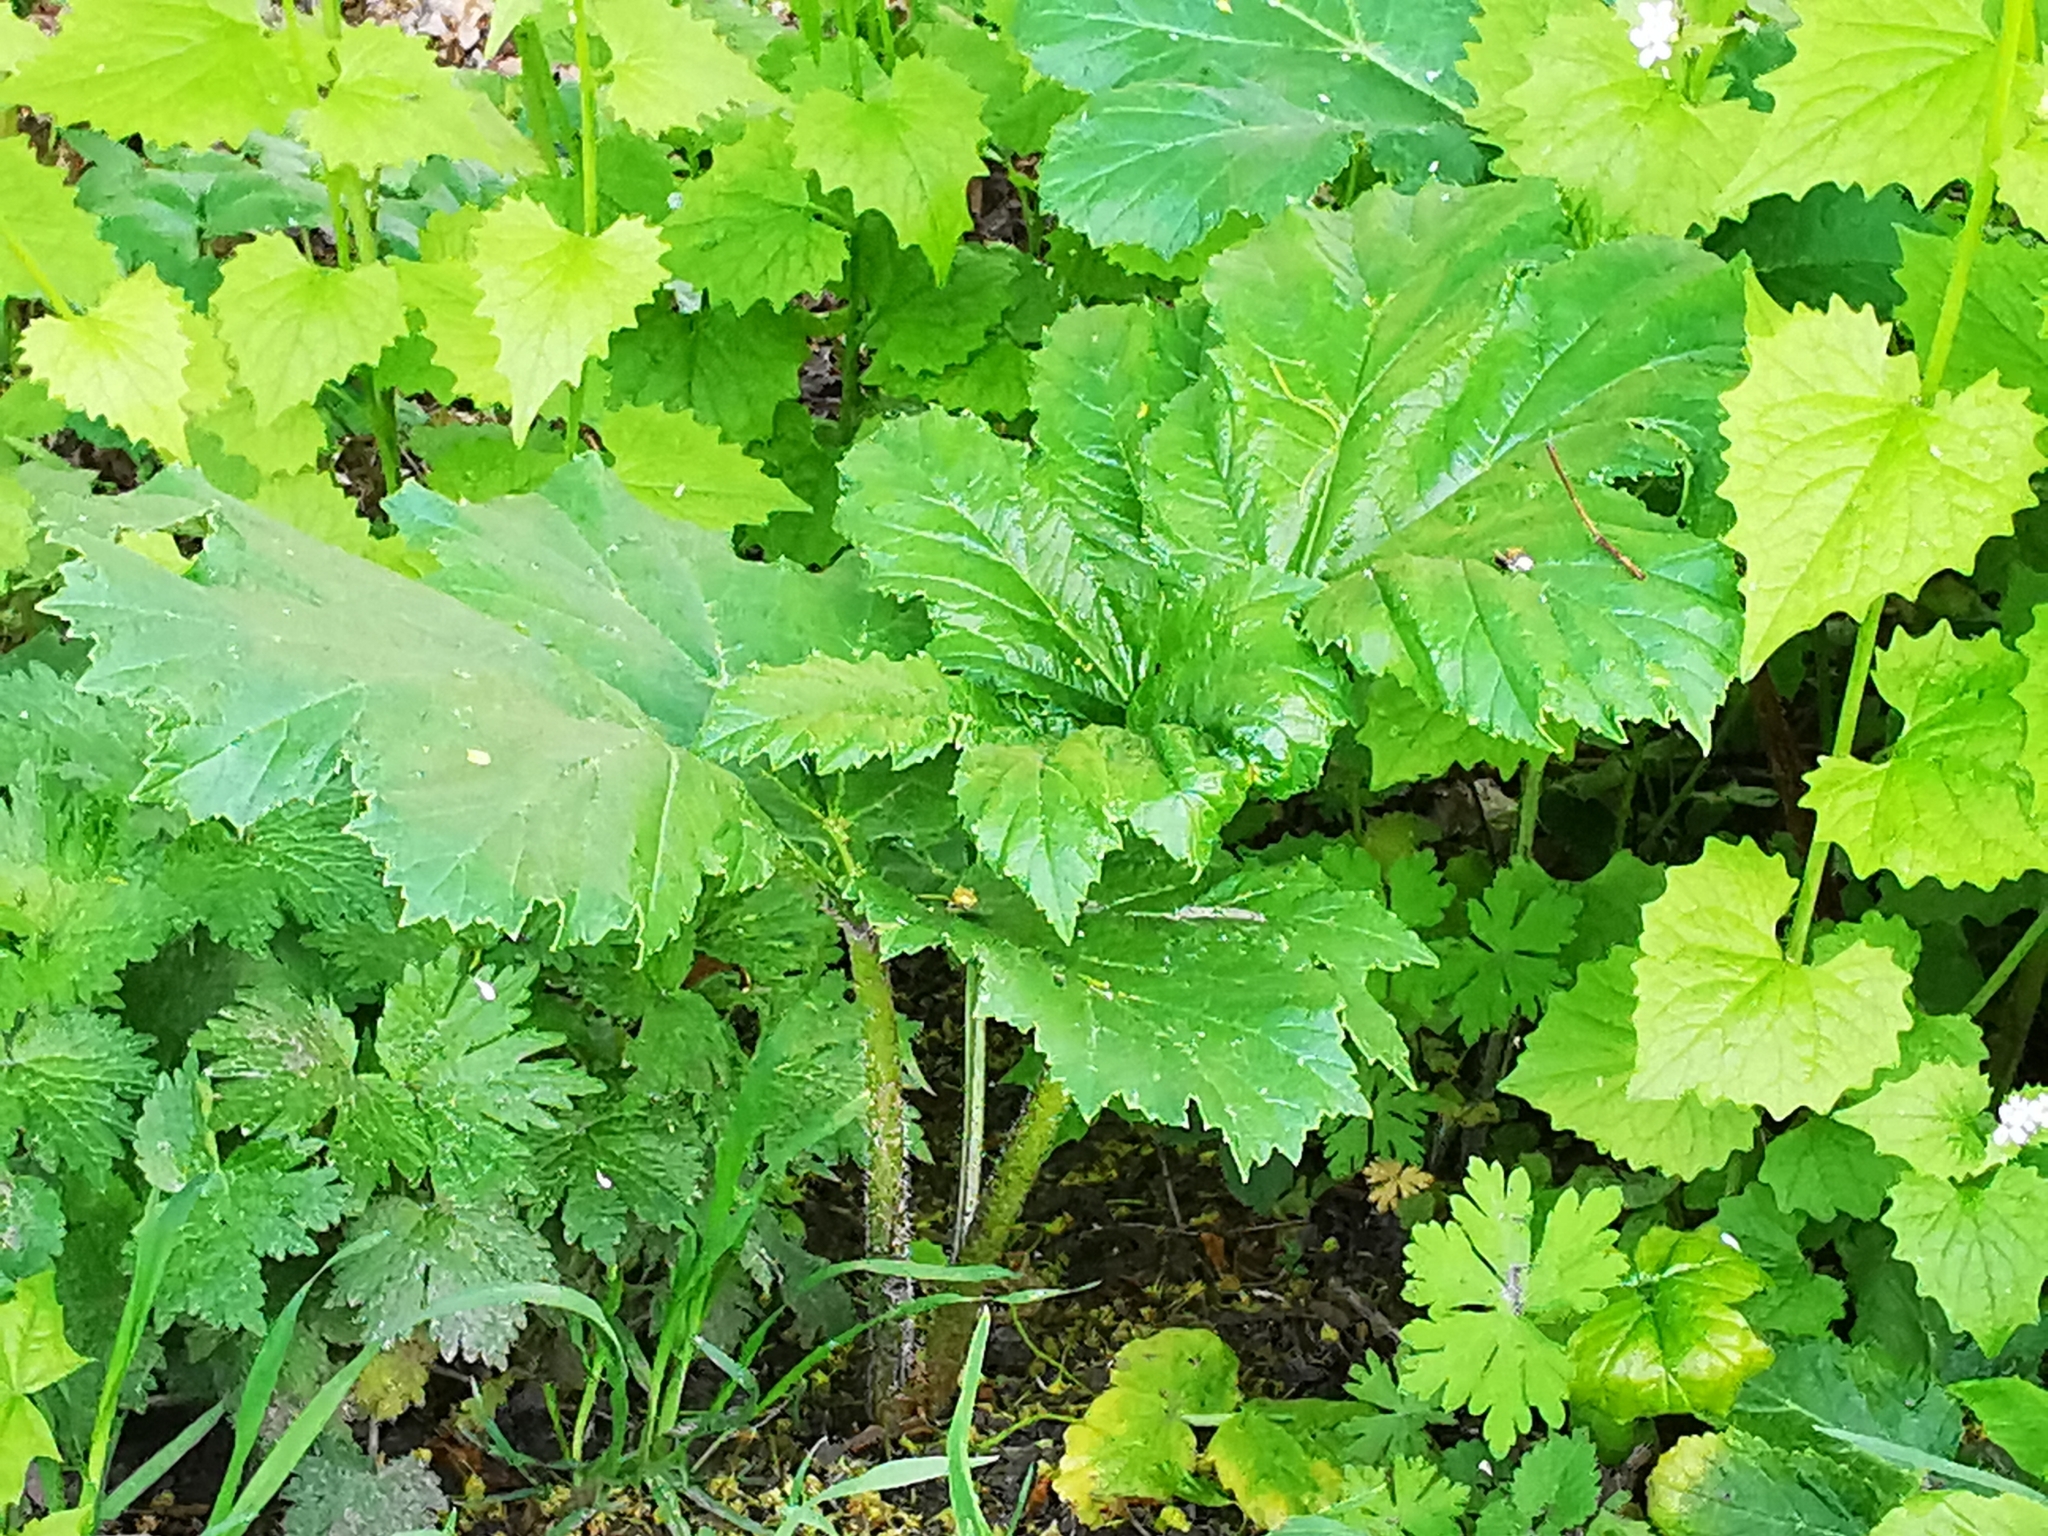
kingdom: Plantae
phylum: Tracheophyta
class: Magnoliopsida
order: Apiales
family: Apiaceae
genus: Heracleum
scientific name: Heracleum sosnowskyi
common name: Sosnowsky's hogweed
